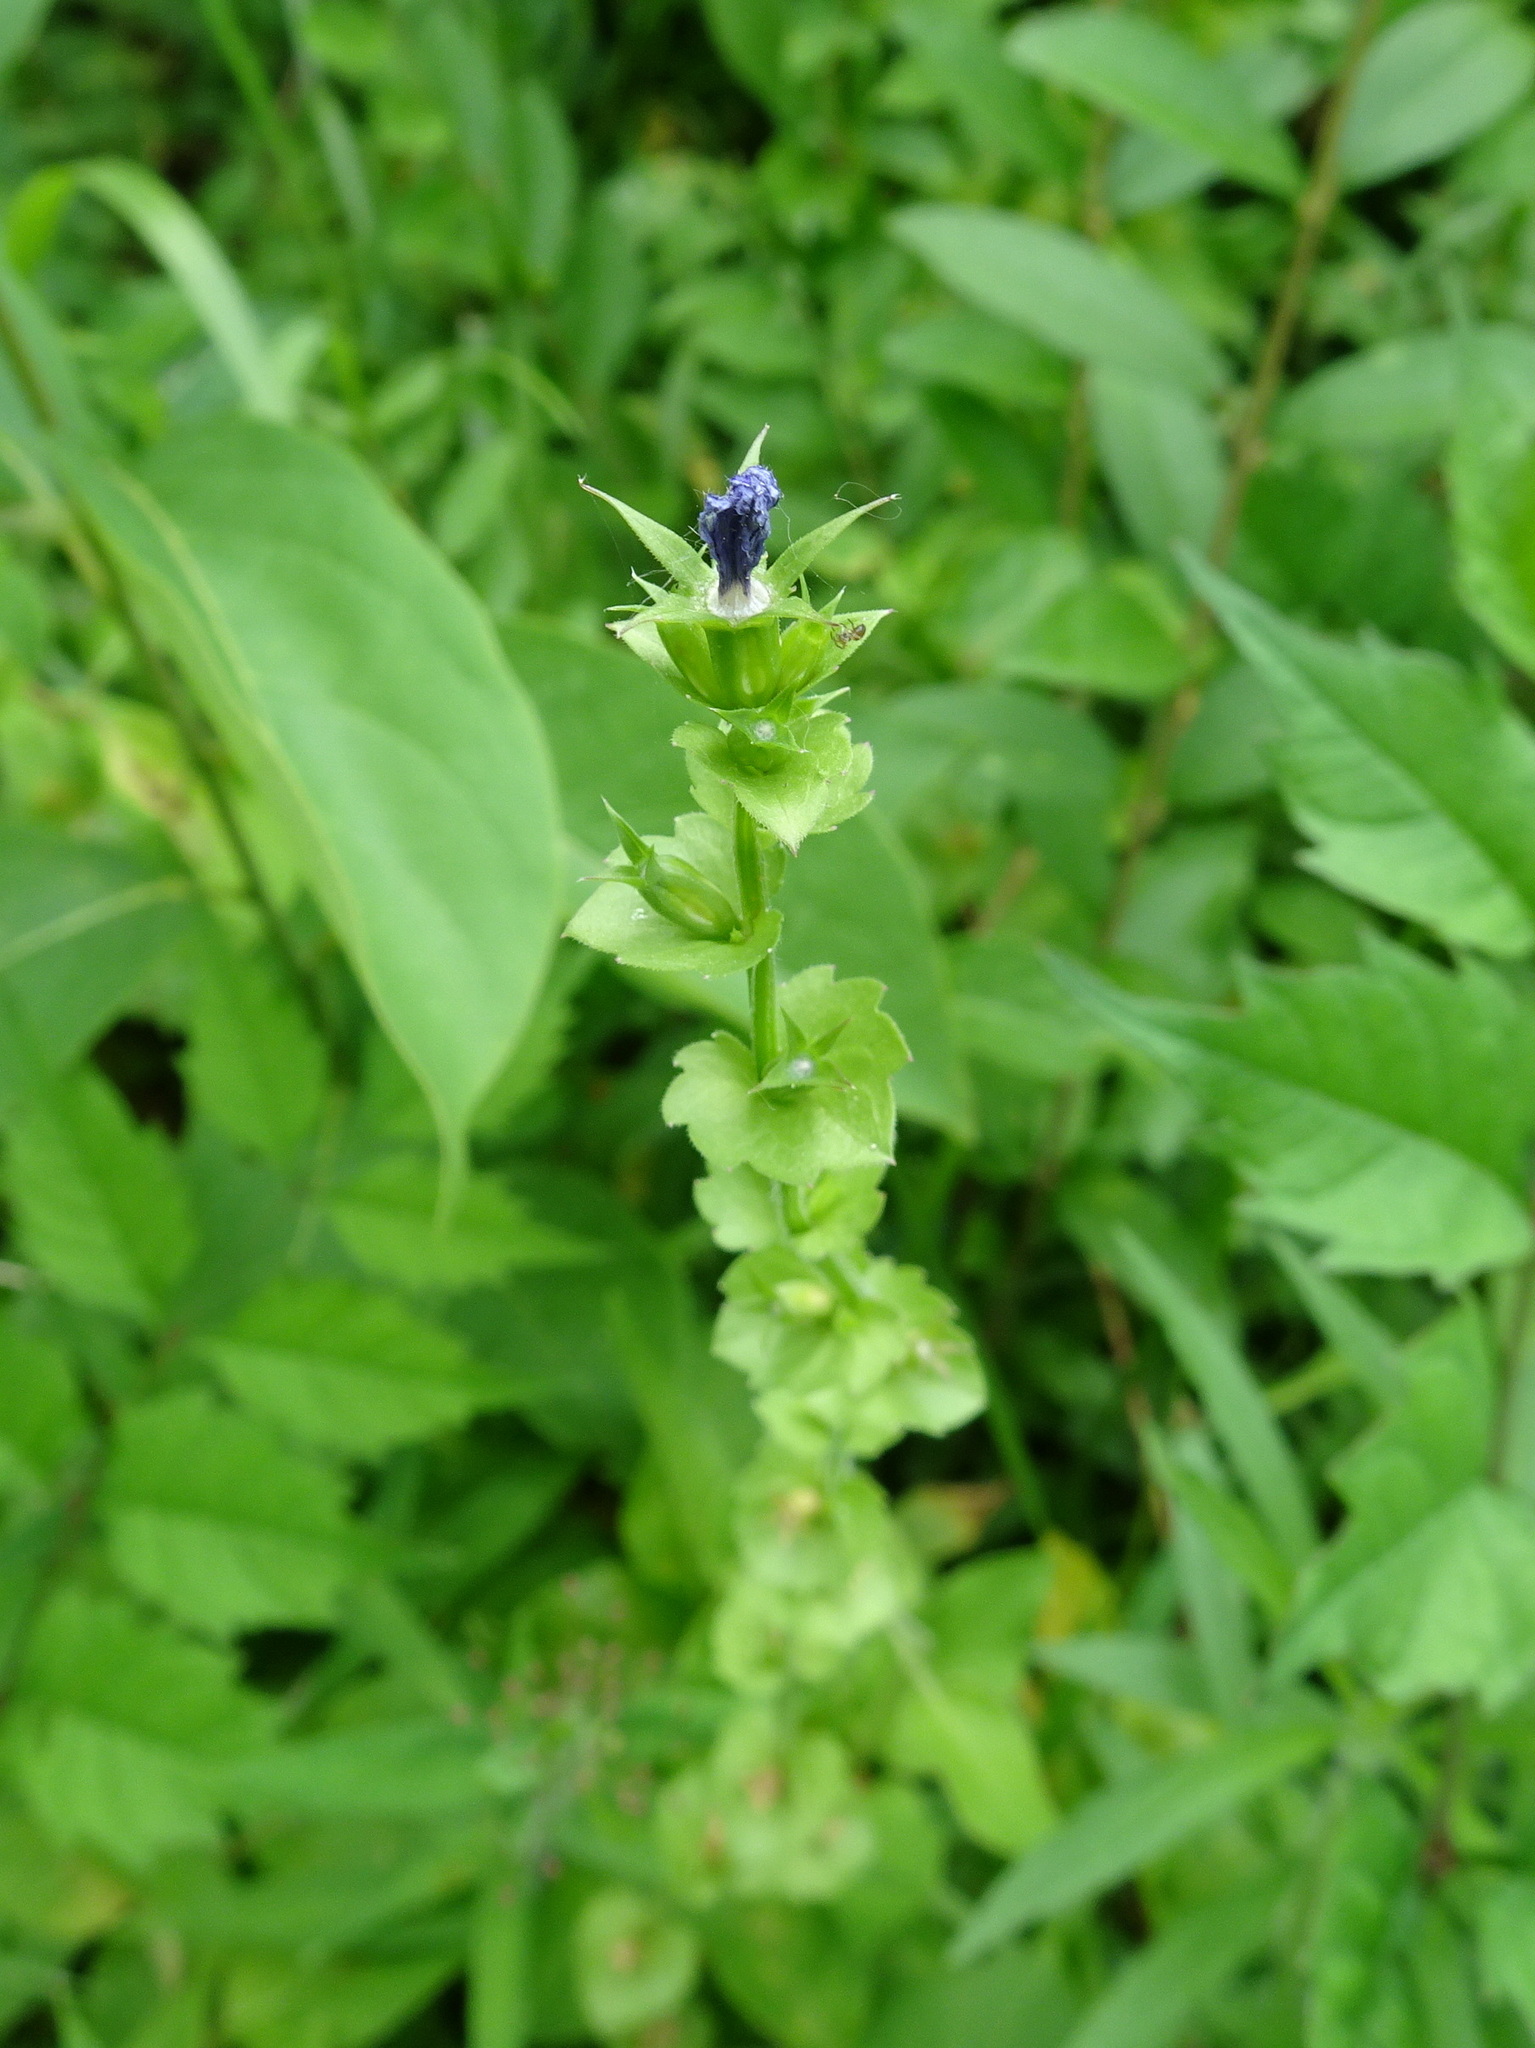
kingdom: Plantae
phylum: Tracheophyta
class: Magnoliopsida
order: Asterales
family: Campanulaceae
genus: Triodanis
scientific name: Triodanis perfoliata
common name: Clasping venus' looking-glass
